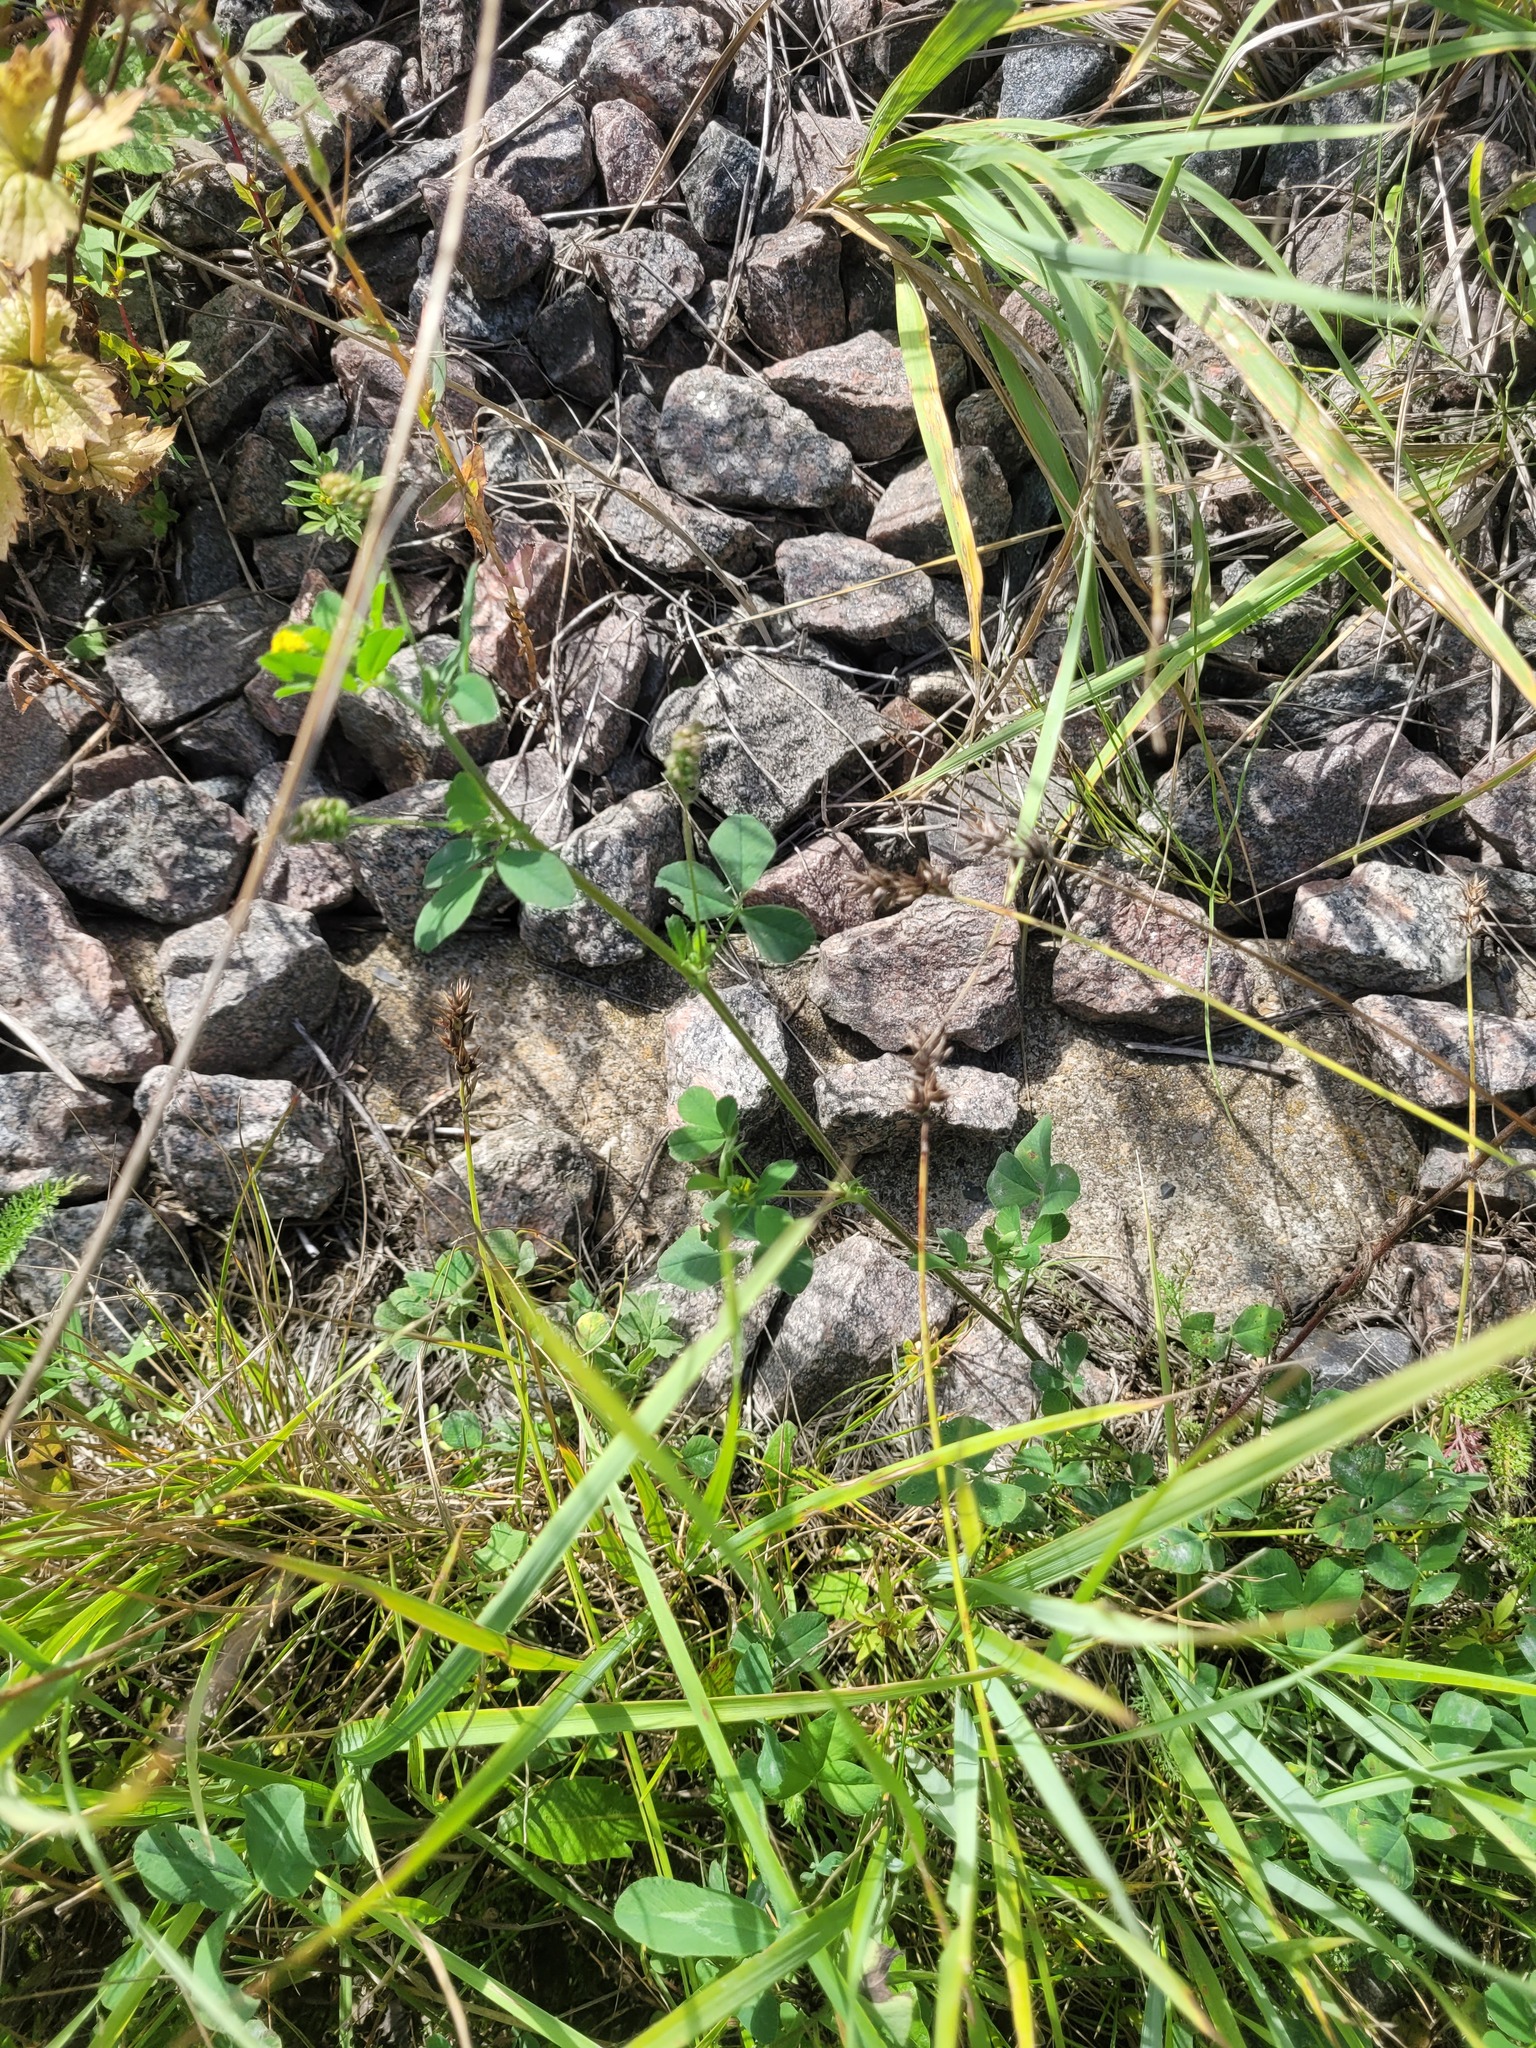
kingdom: Plantae
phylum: Tracheophyta
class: Magnoliopsida
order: Fabales
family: Fabaceae
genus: Medicago
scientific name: Medicago lupulina
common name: Black medick
